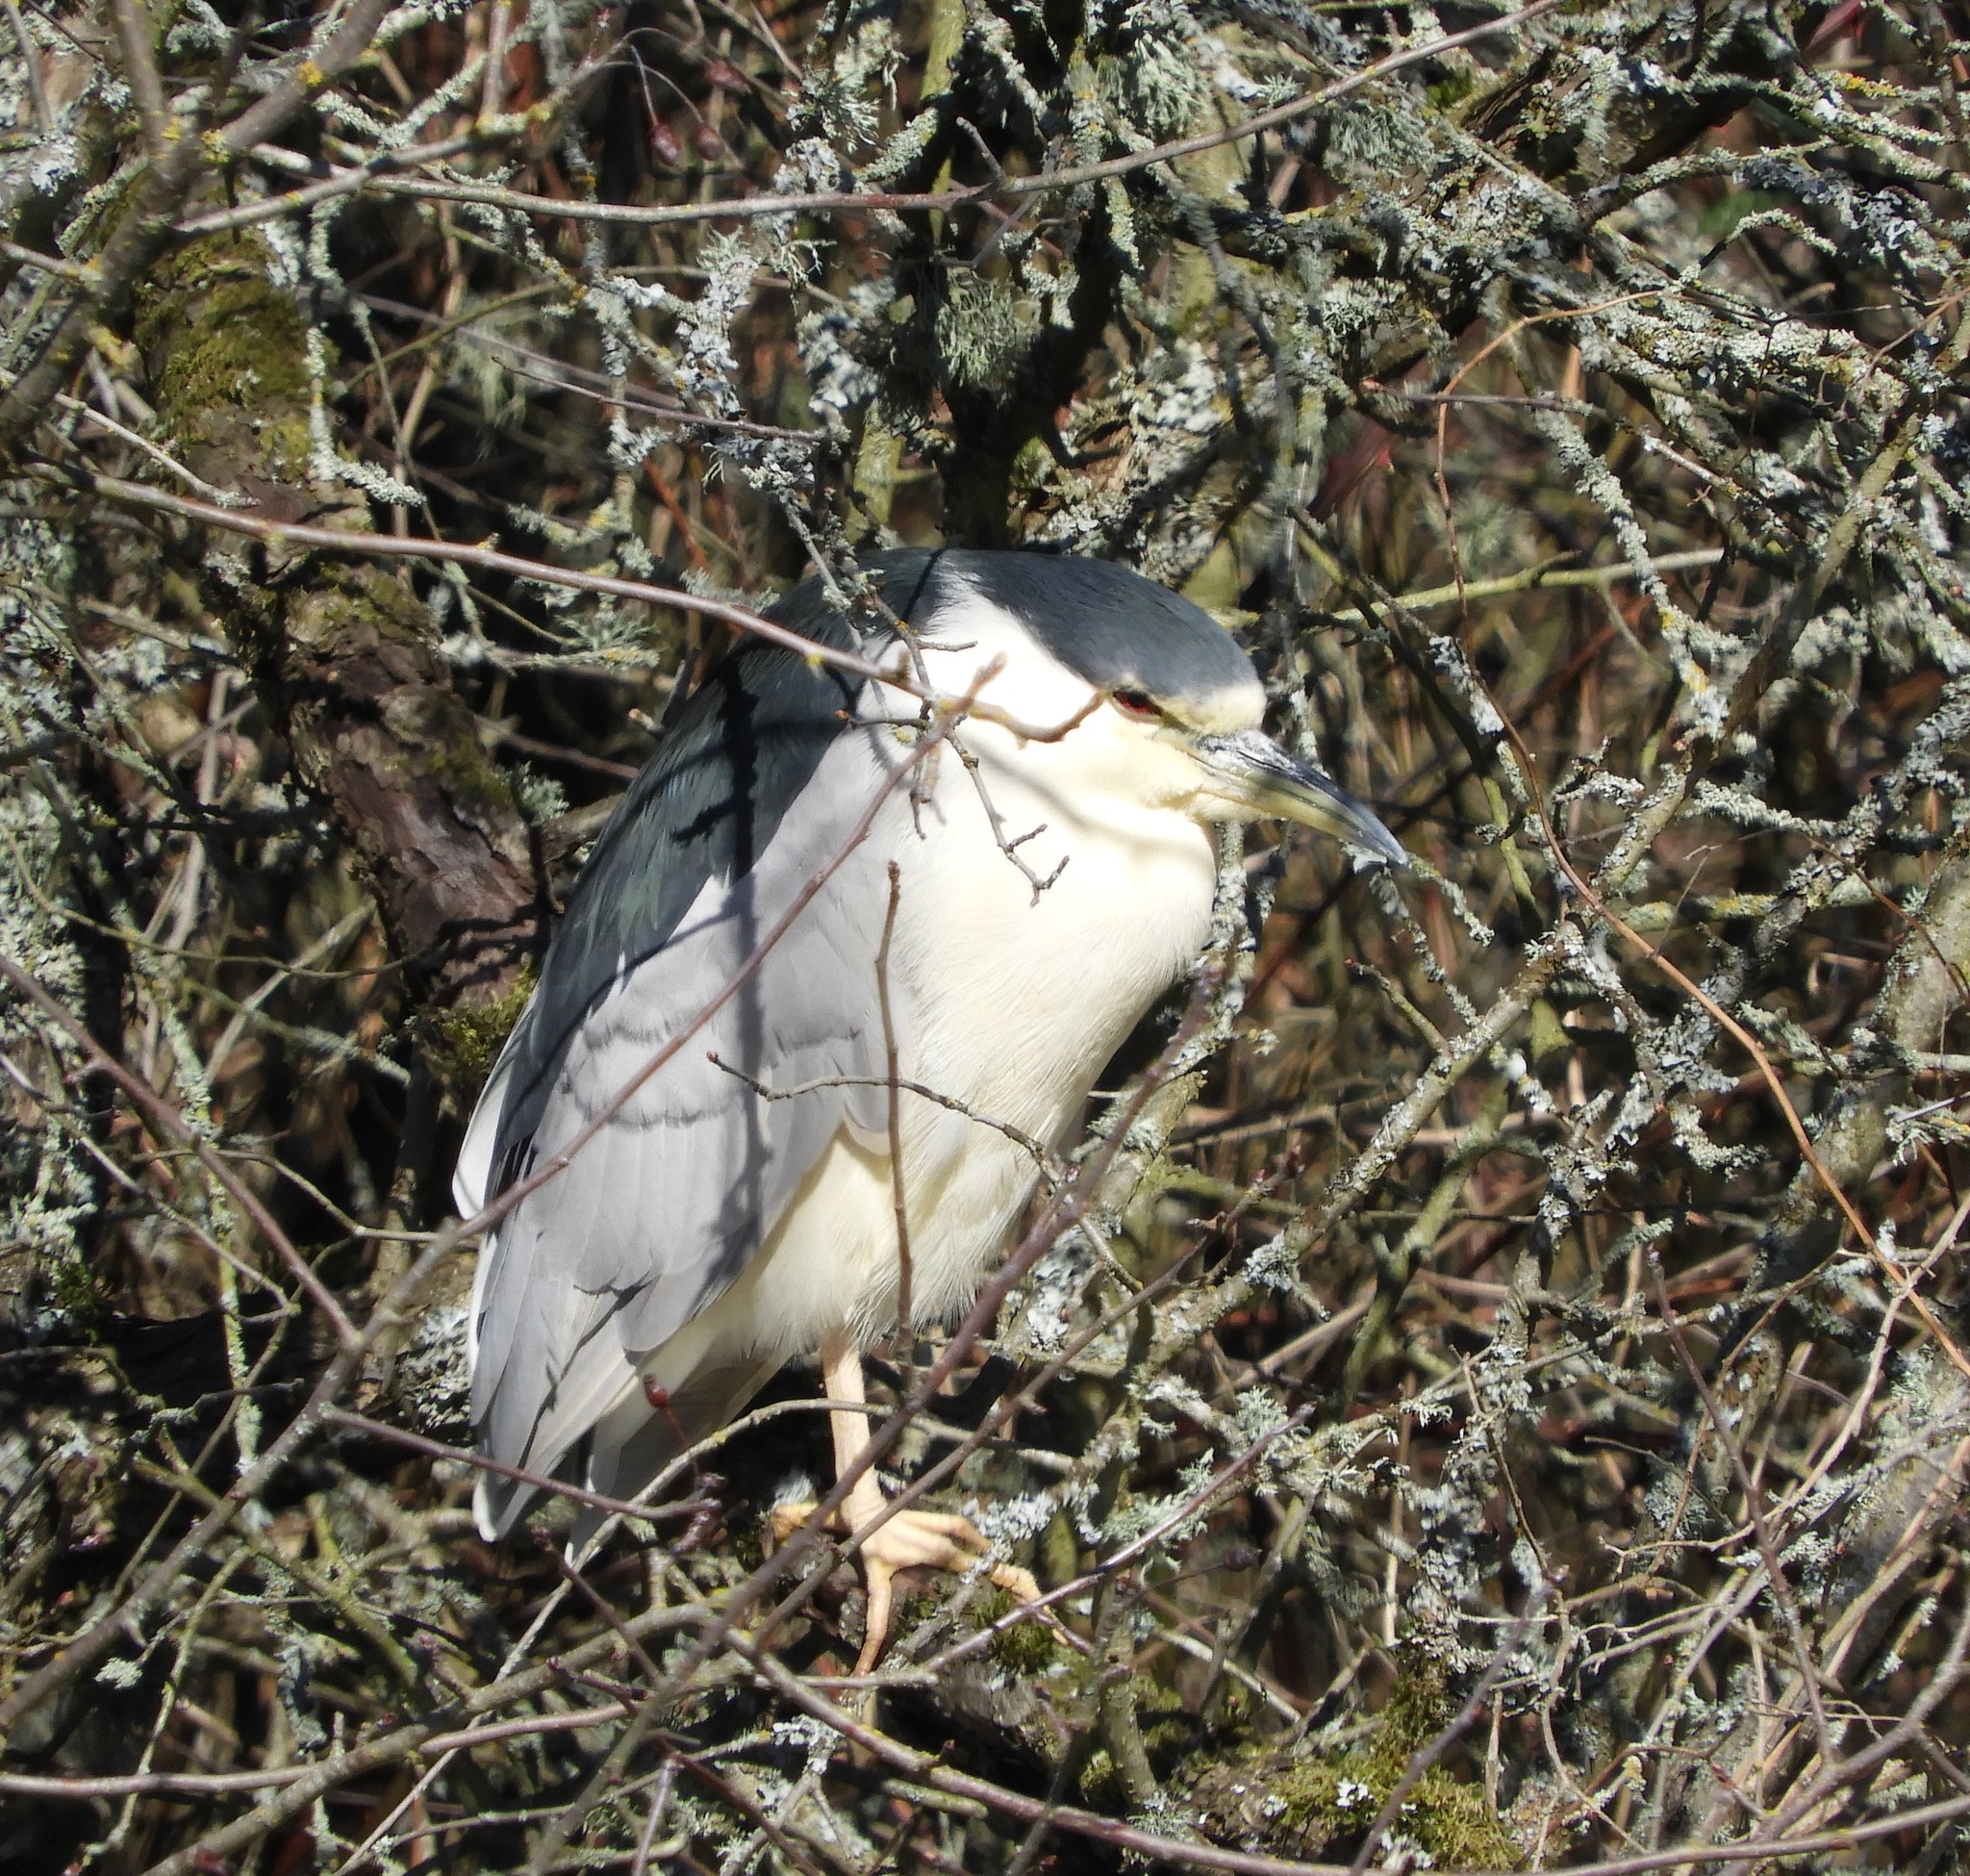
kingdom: Animalia
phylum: Chordata
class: Aves
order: Pelecaniformes
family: Ardeidae
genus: Nycticorax
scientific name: Nycticorax nycticorax
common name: Black-crowned night heron
